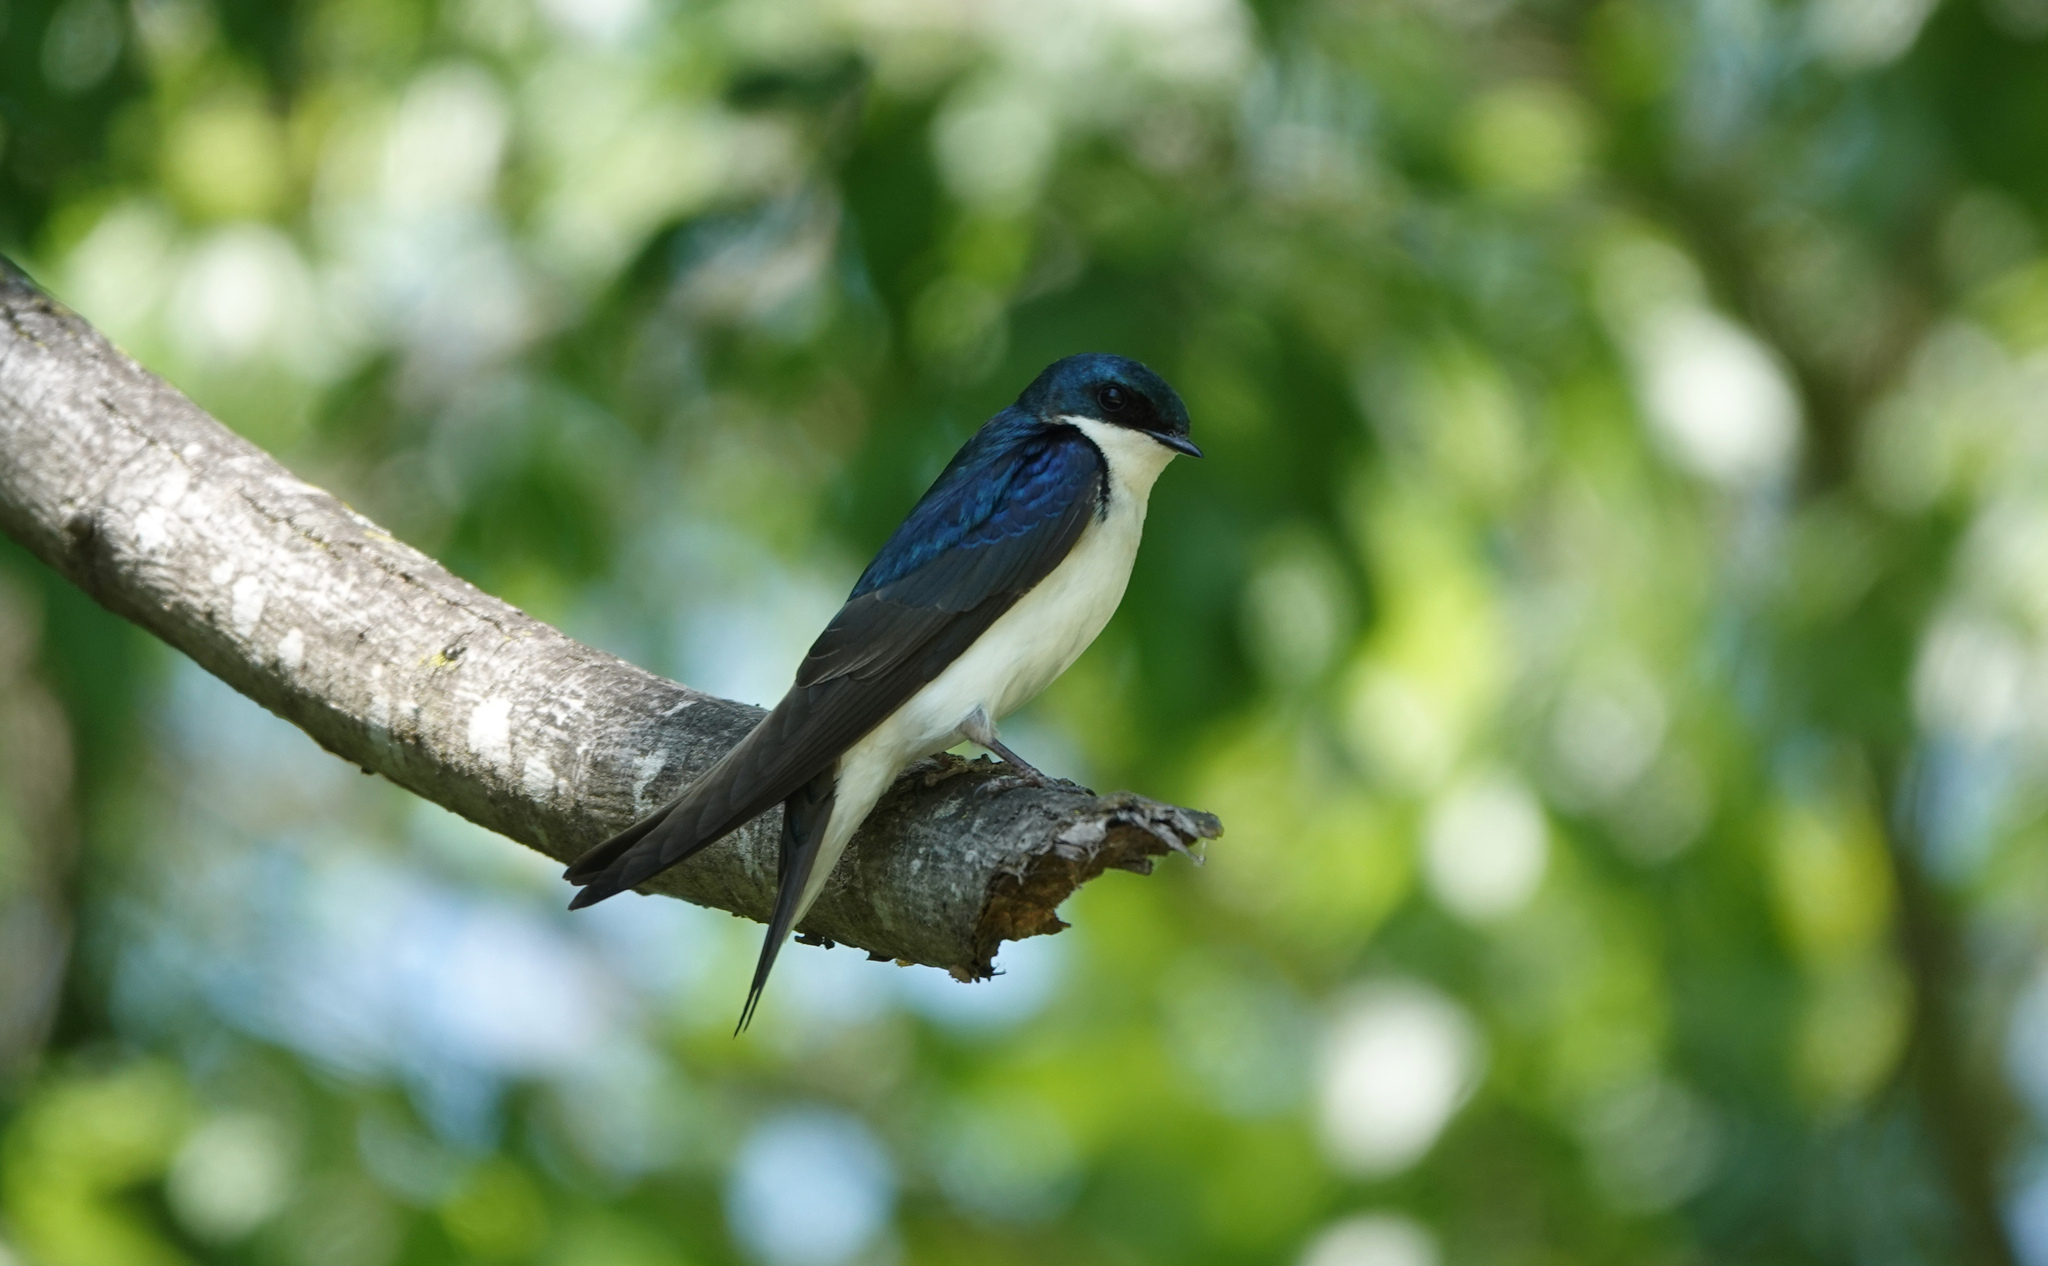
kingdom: Animalia
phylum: Chordata
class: Aves
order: Passeriformes
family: Hirundinidae
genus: Tachycineta
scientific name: Tachycineta bicolor
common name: Tree swallow
